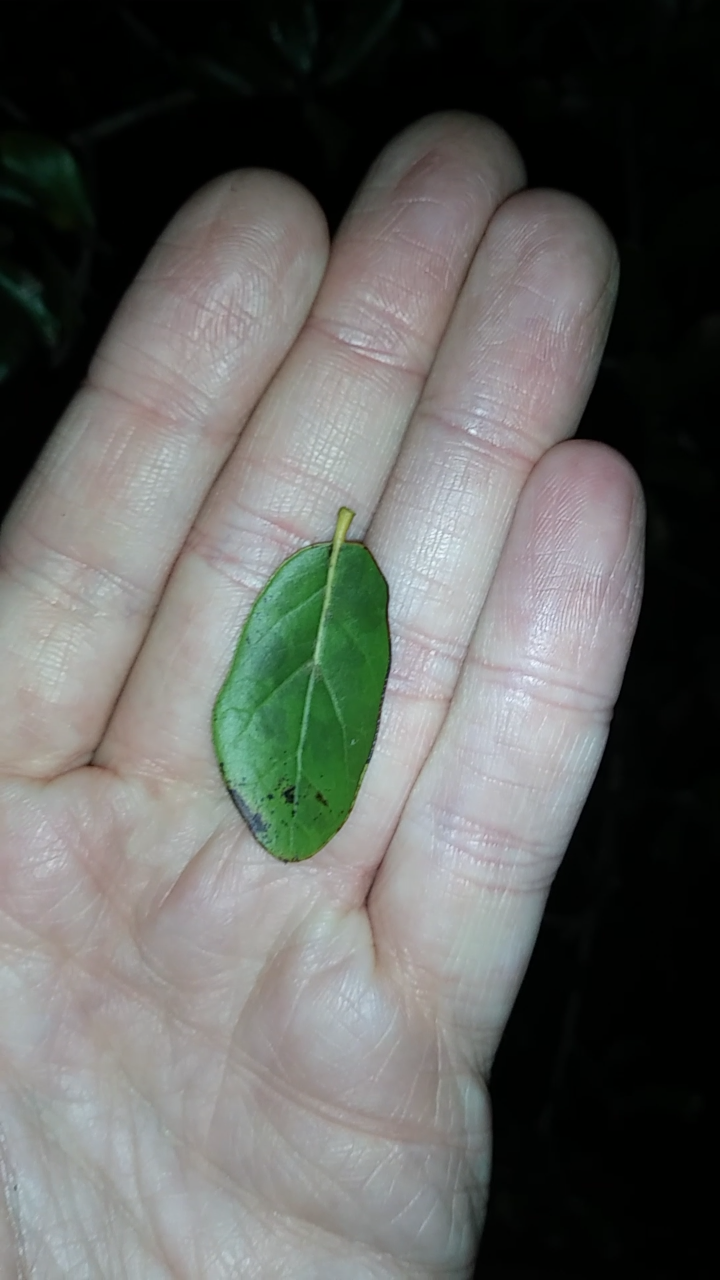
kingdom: Plantae
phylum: Tracheophyta
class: Magnoliopsida
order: Fagales
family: Fagaceae
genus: Quercus
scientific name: Quercus myrtifolia
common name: Myrtle oak
